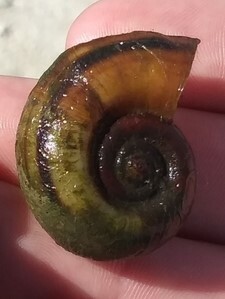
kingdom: Animalia
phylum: Mollusca
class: Gastropoda
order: Architaenioglossa
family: Ampullariidae
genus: Marisa
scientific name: Marisa cornuarietis
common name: Giant ramshorn snail
